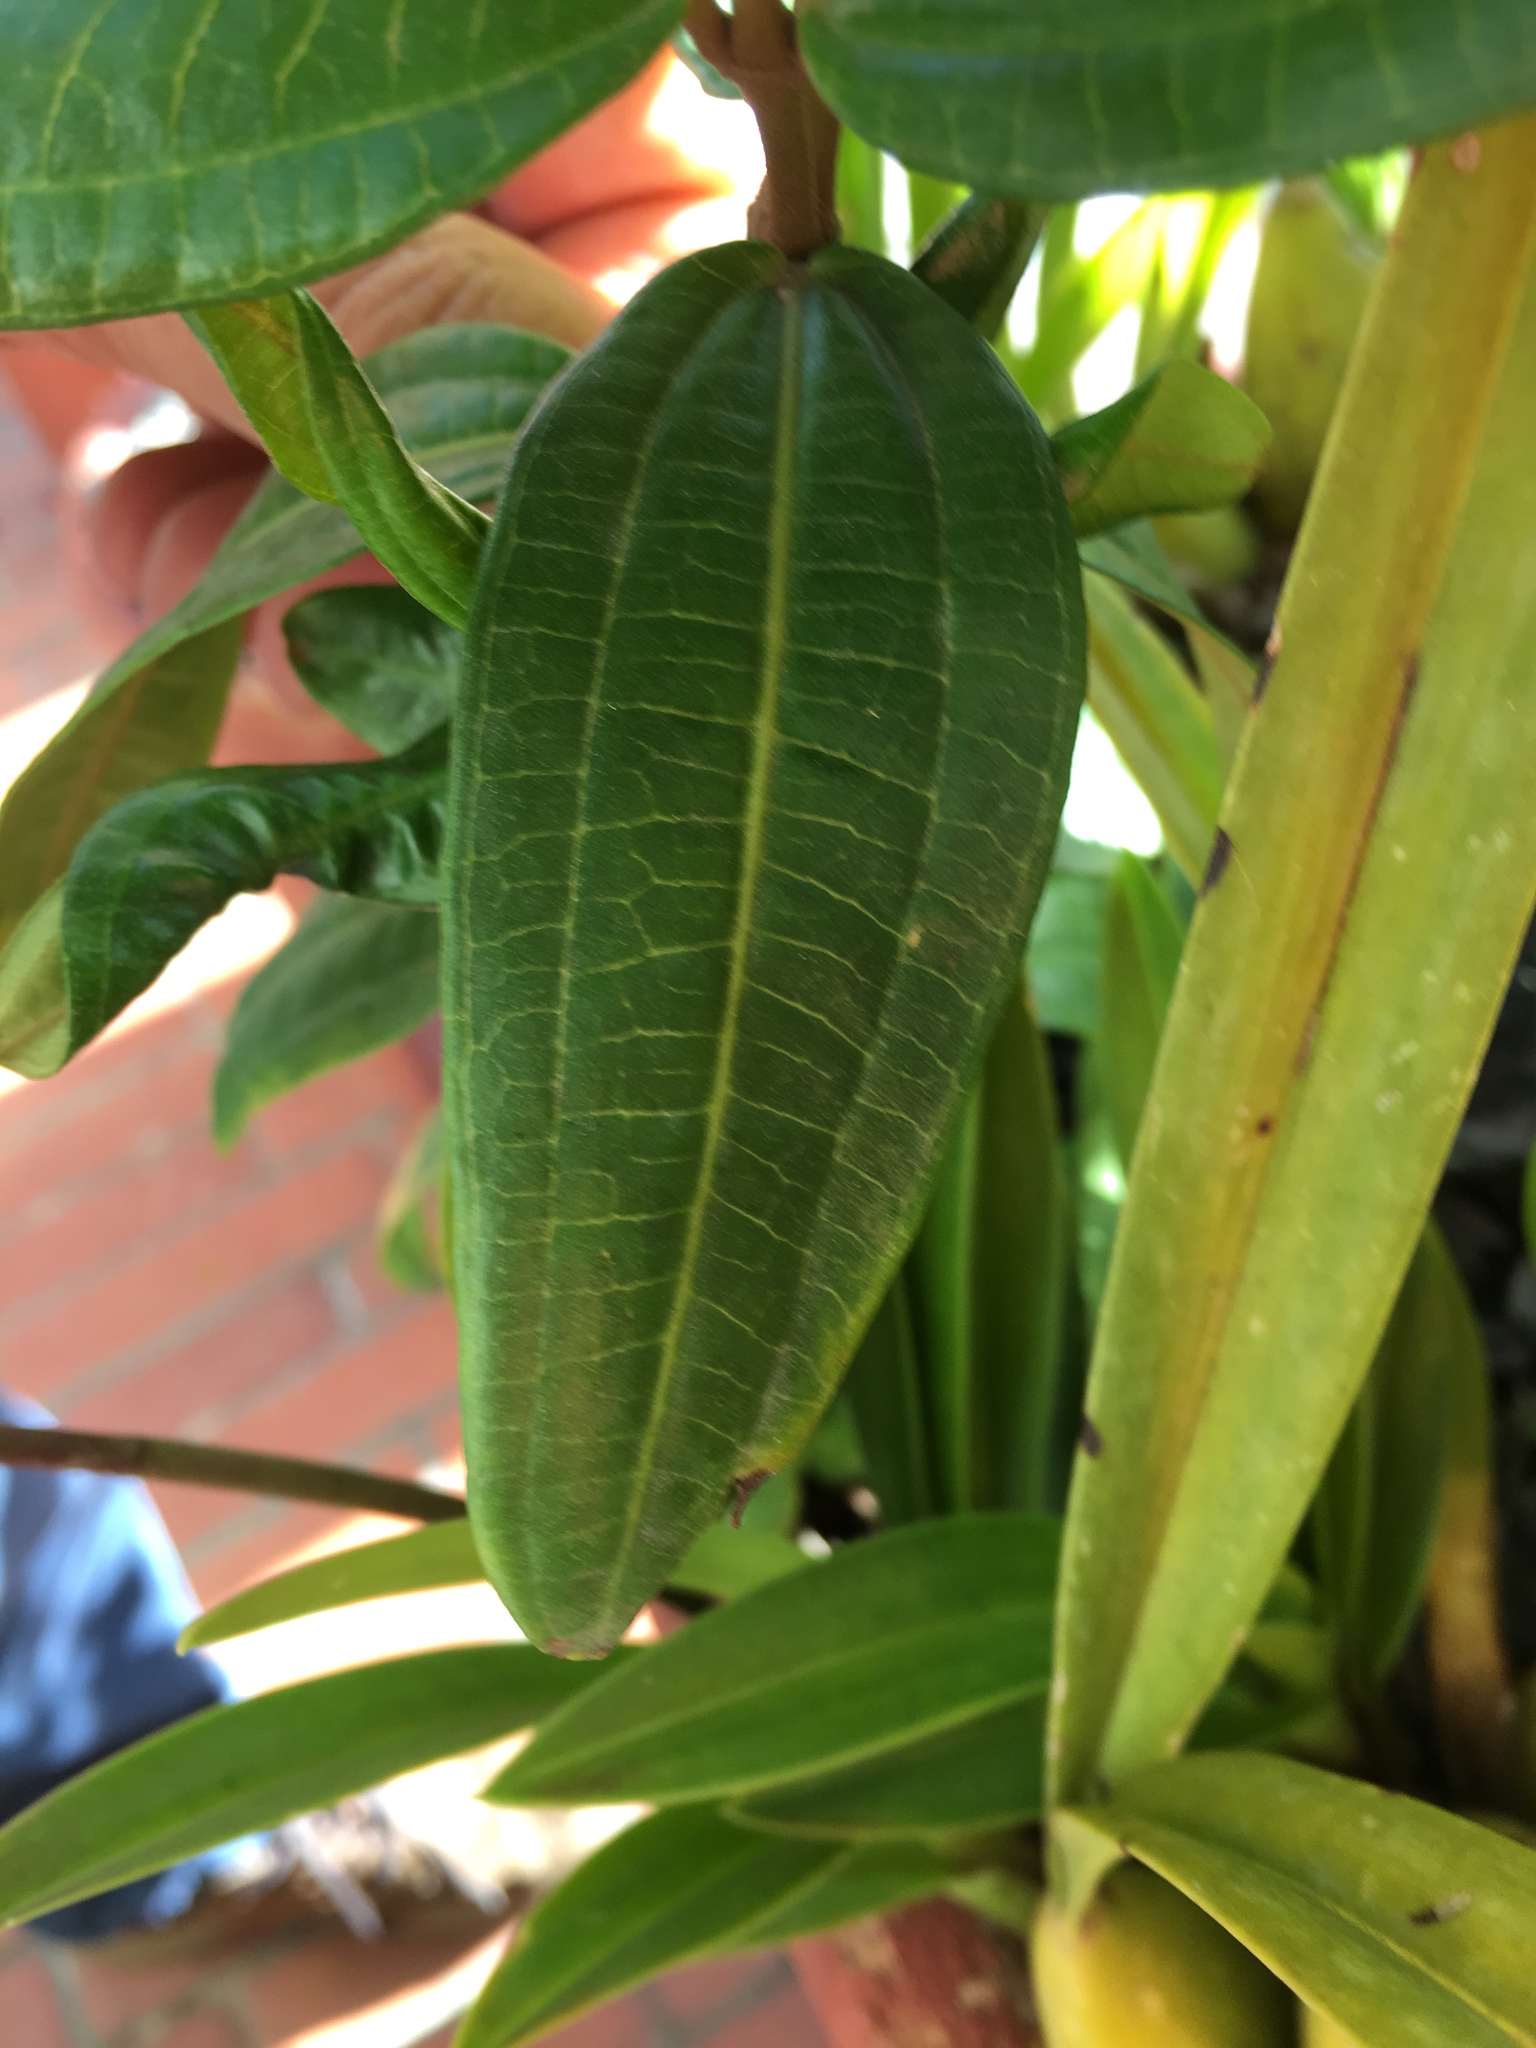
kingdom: Plantae
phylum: Tracheophyta
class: Magnoliopsida
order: Myrtales
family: Melastomataceae
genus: Miconia
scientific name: Miconia squamulosa
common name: Squamulose maya
